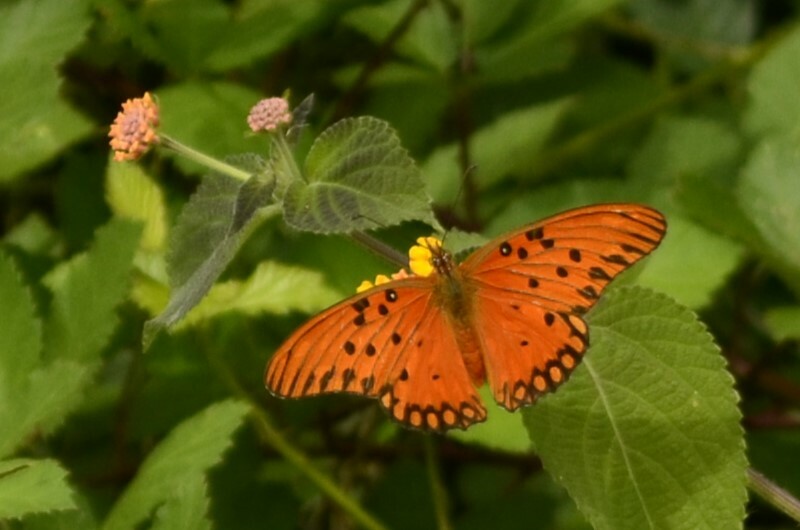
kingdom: Animalia
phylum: Arthropoda
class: Insecta
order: Lepidoptera
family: Nymphalidae
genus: Dione
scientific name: Dione vanillae
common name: Gulf fritillary
